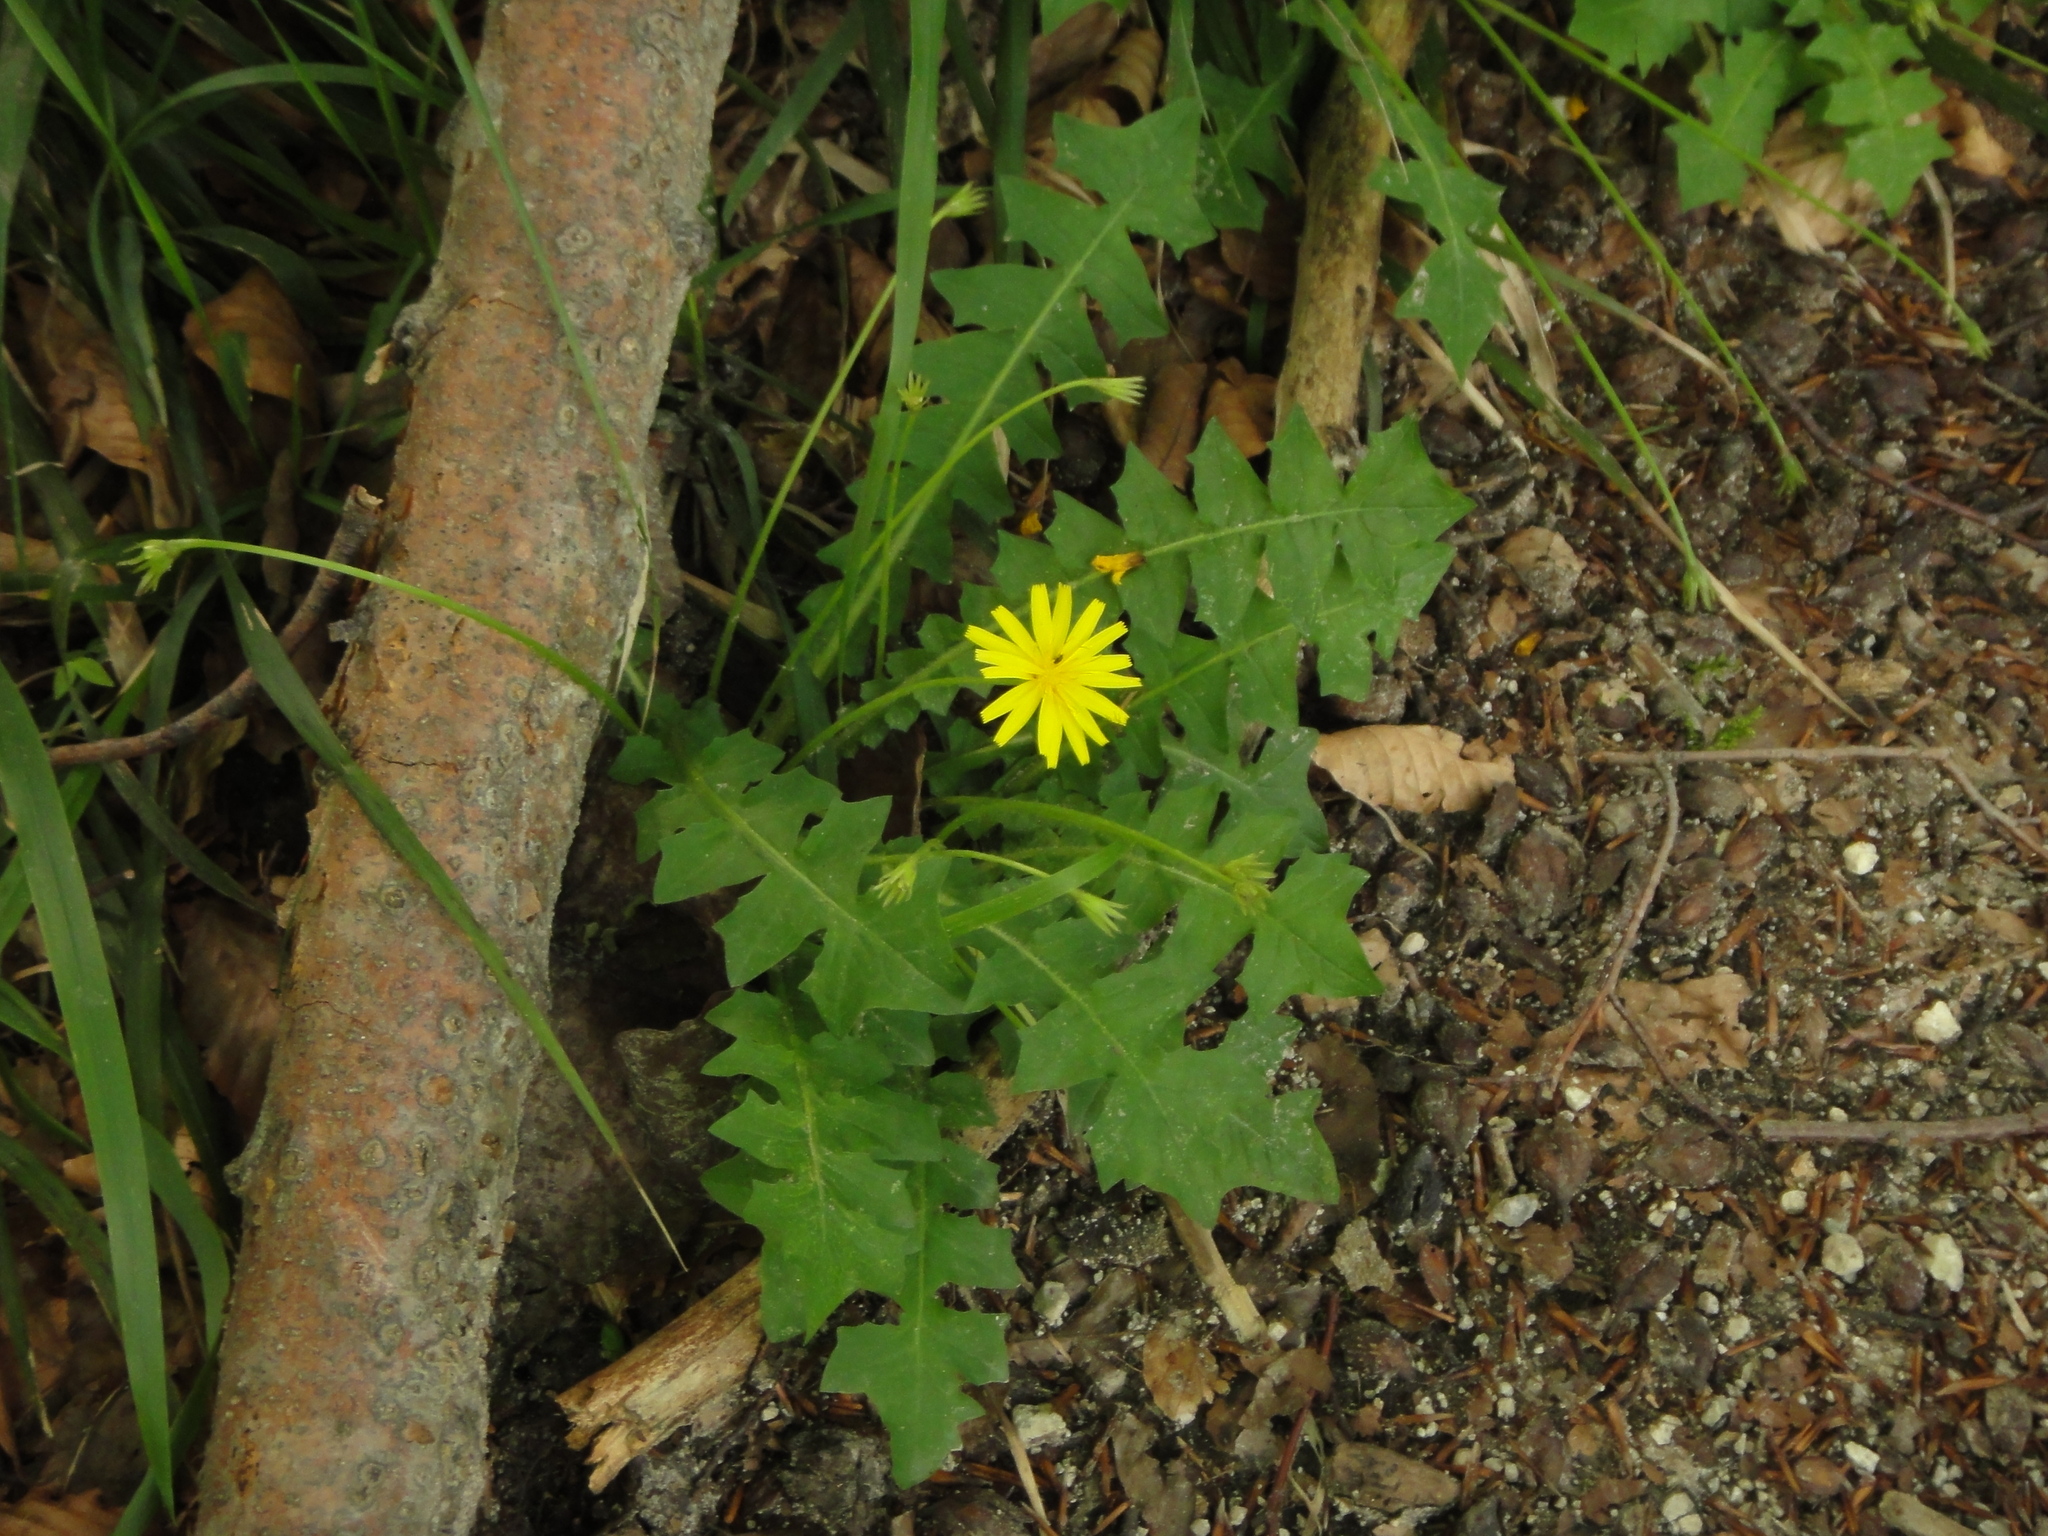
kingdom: Plantae
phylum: Tracheophyta
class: Magnoliopsida
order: Asterales
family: Asteraceae
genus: Aposeris
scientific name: Aposeris foetida
